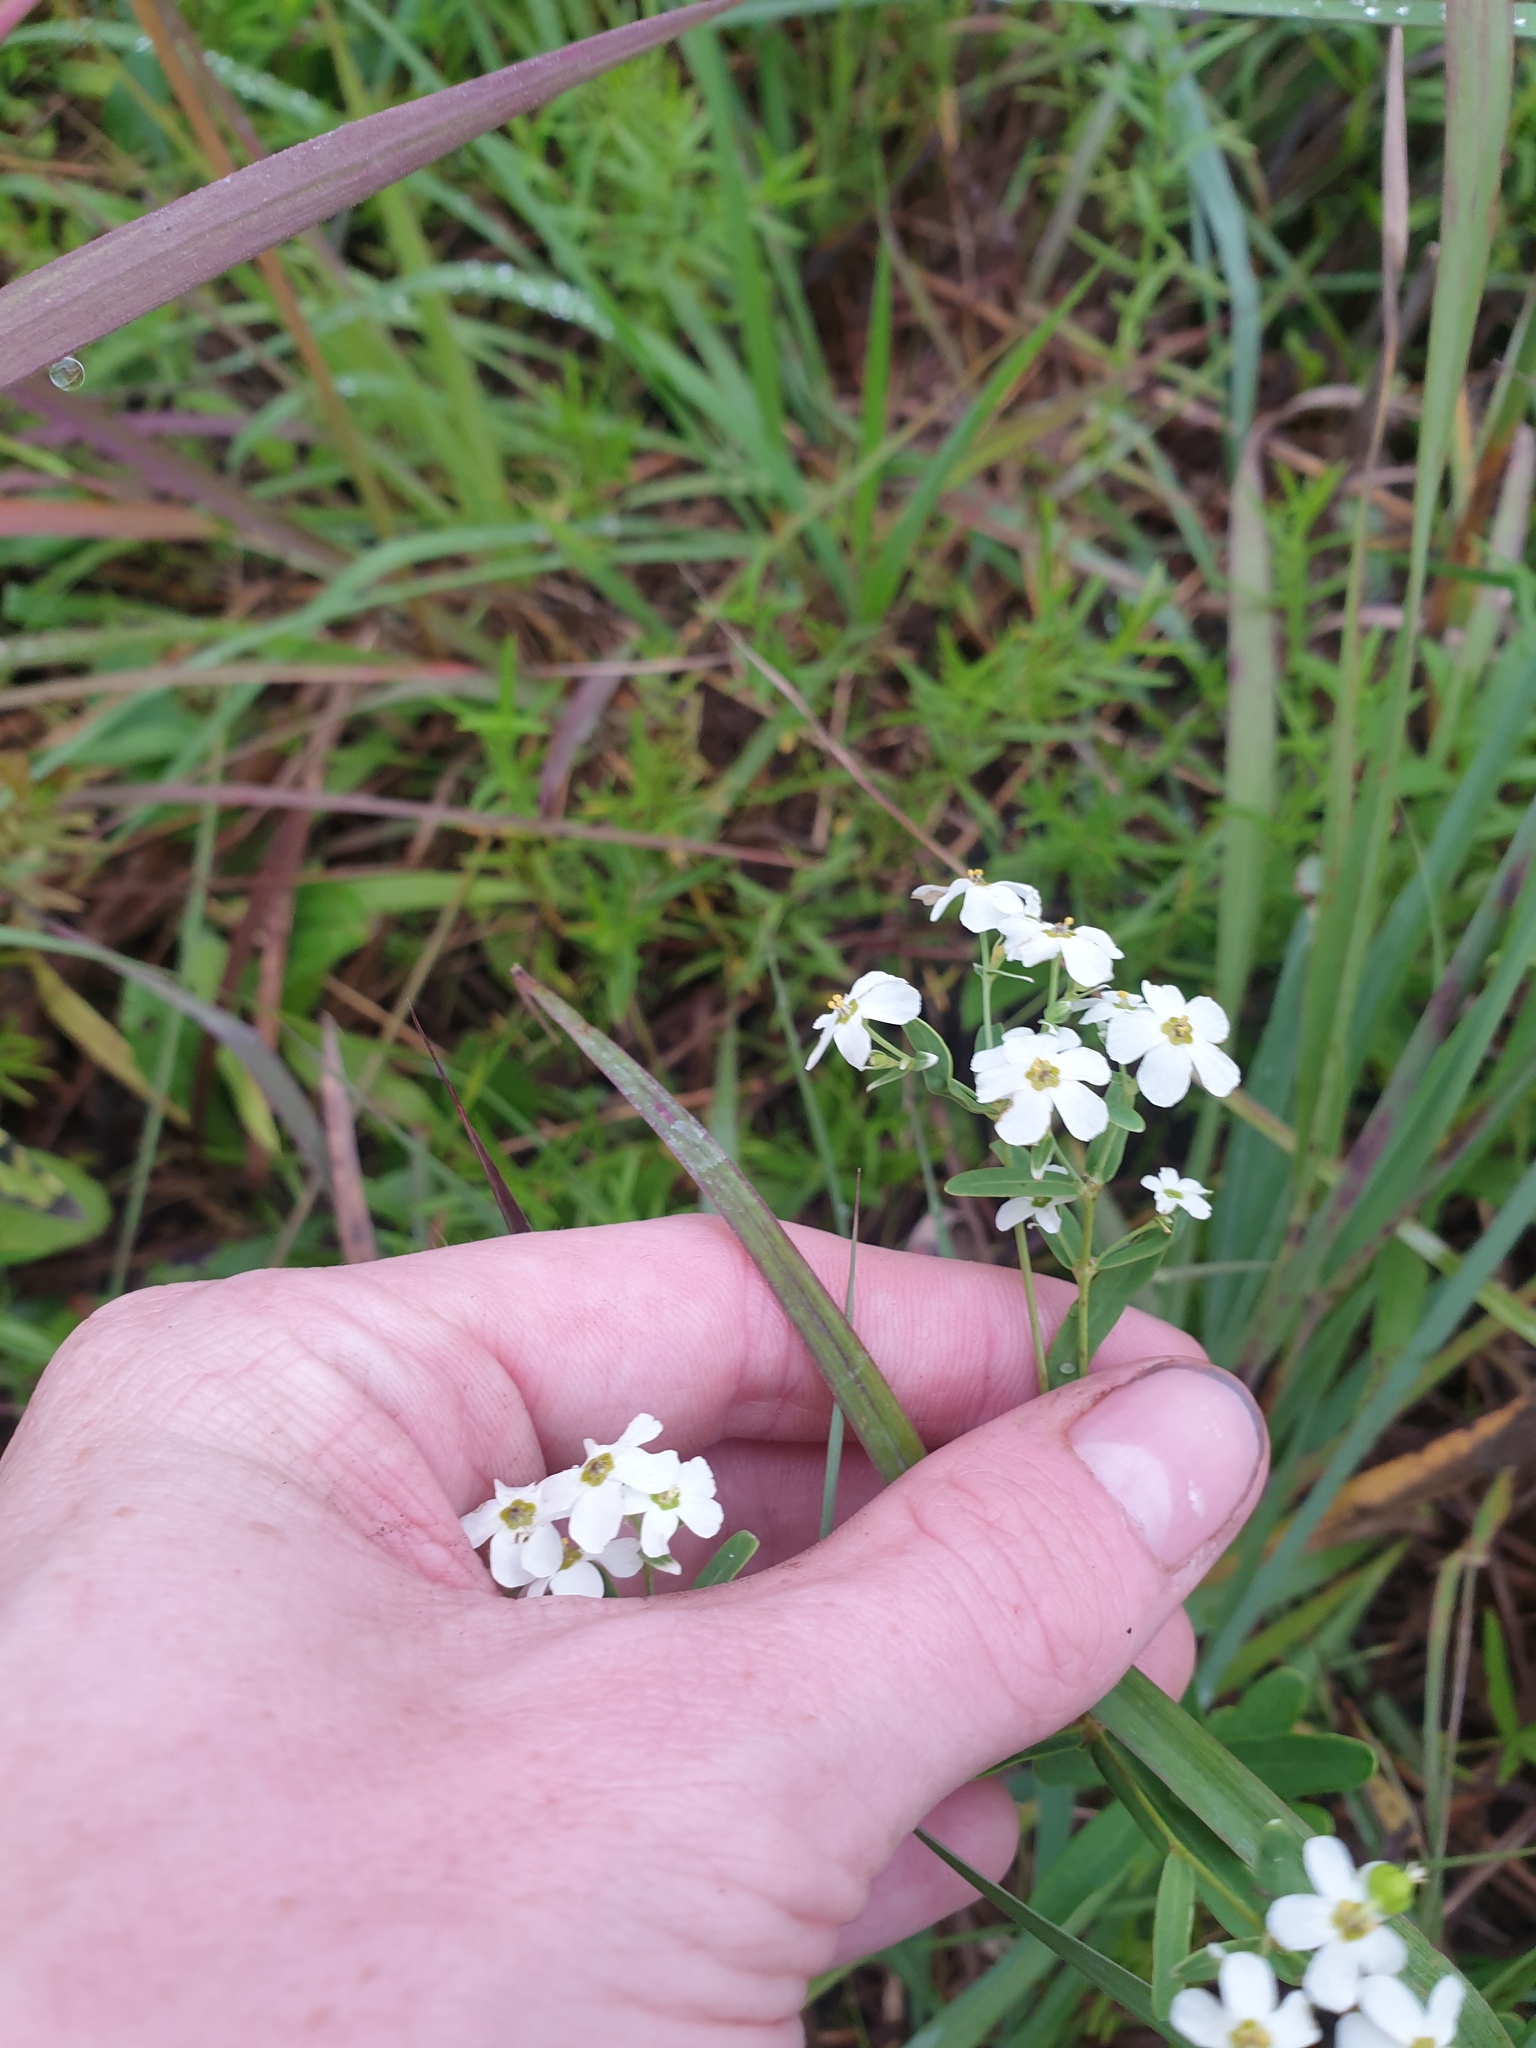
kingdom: Plantae
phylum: Tracheophyta
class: Magnoliopsida
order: Malpighiales
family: Euphorbiaceae
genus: Euphorbia
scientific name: Euphorbia corollata
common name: Flowering spurge
